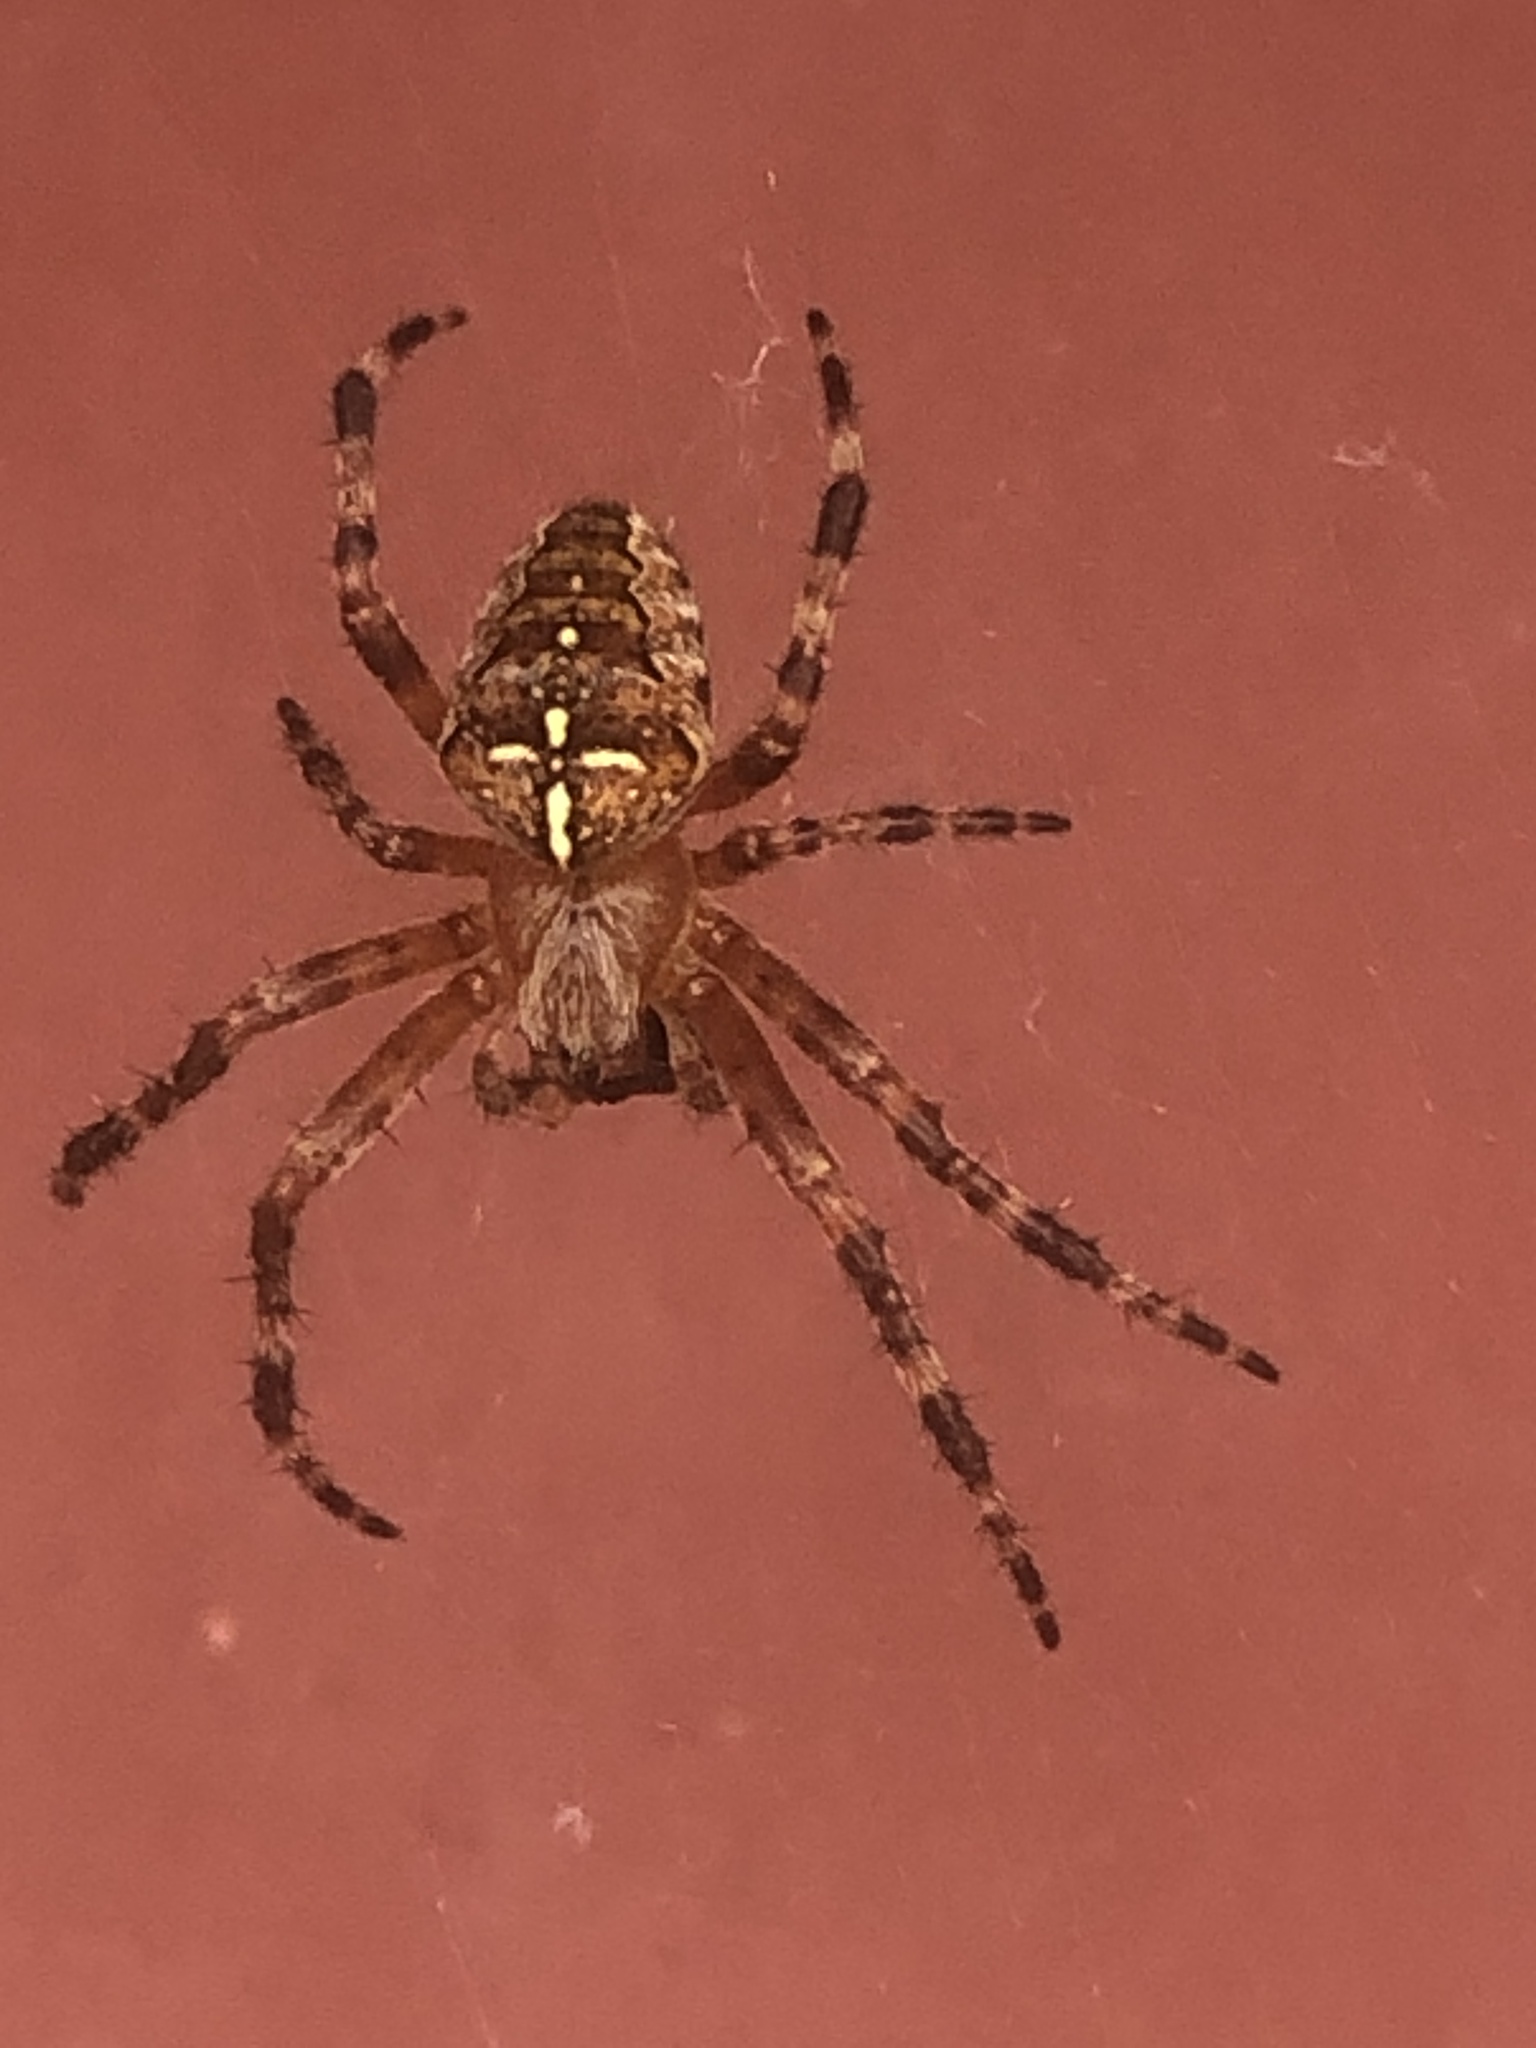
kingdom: Animalia
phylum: Arthropoda
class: Arachnida
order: Araneae
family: Araneidae
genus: Araneus
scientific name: Araneus diadematus
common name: Cross orbweaver
